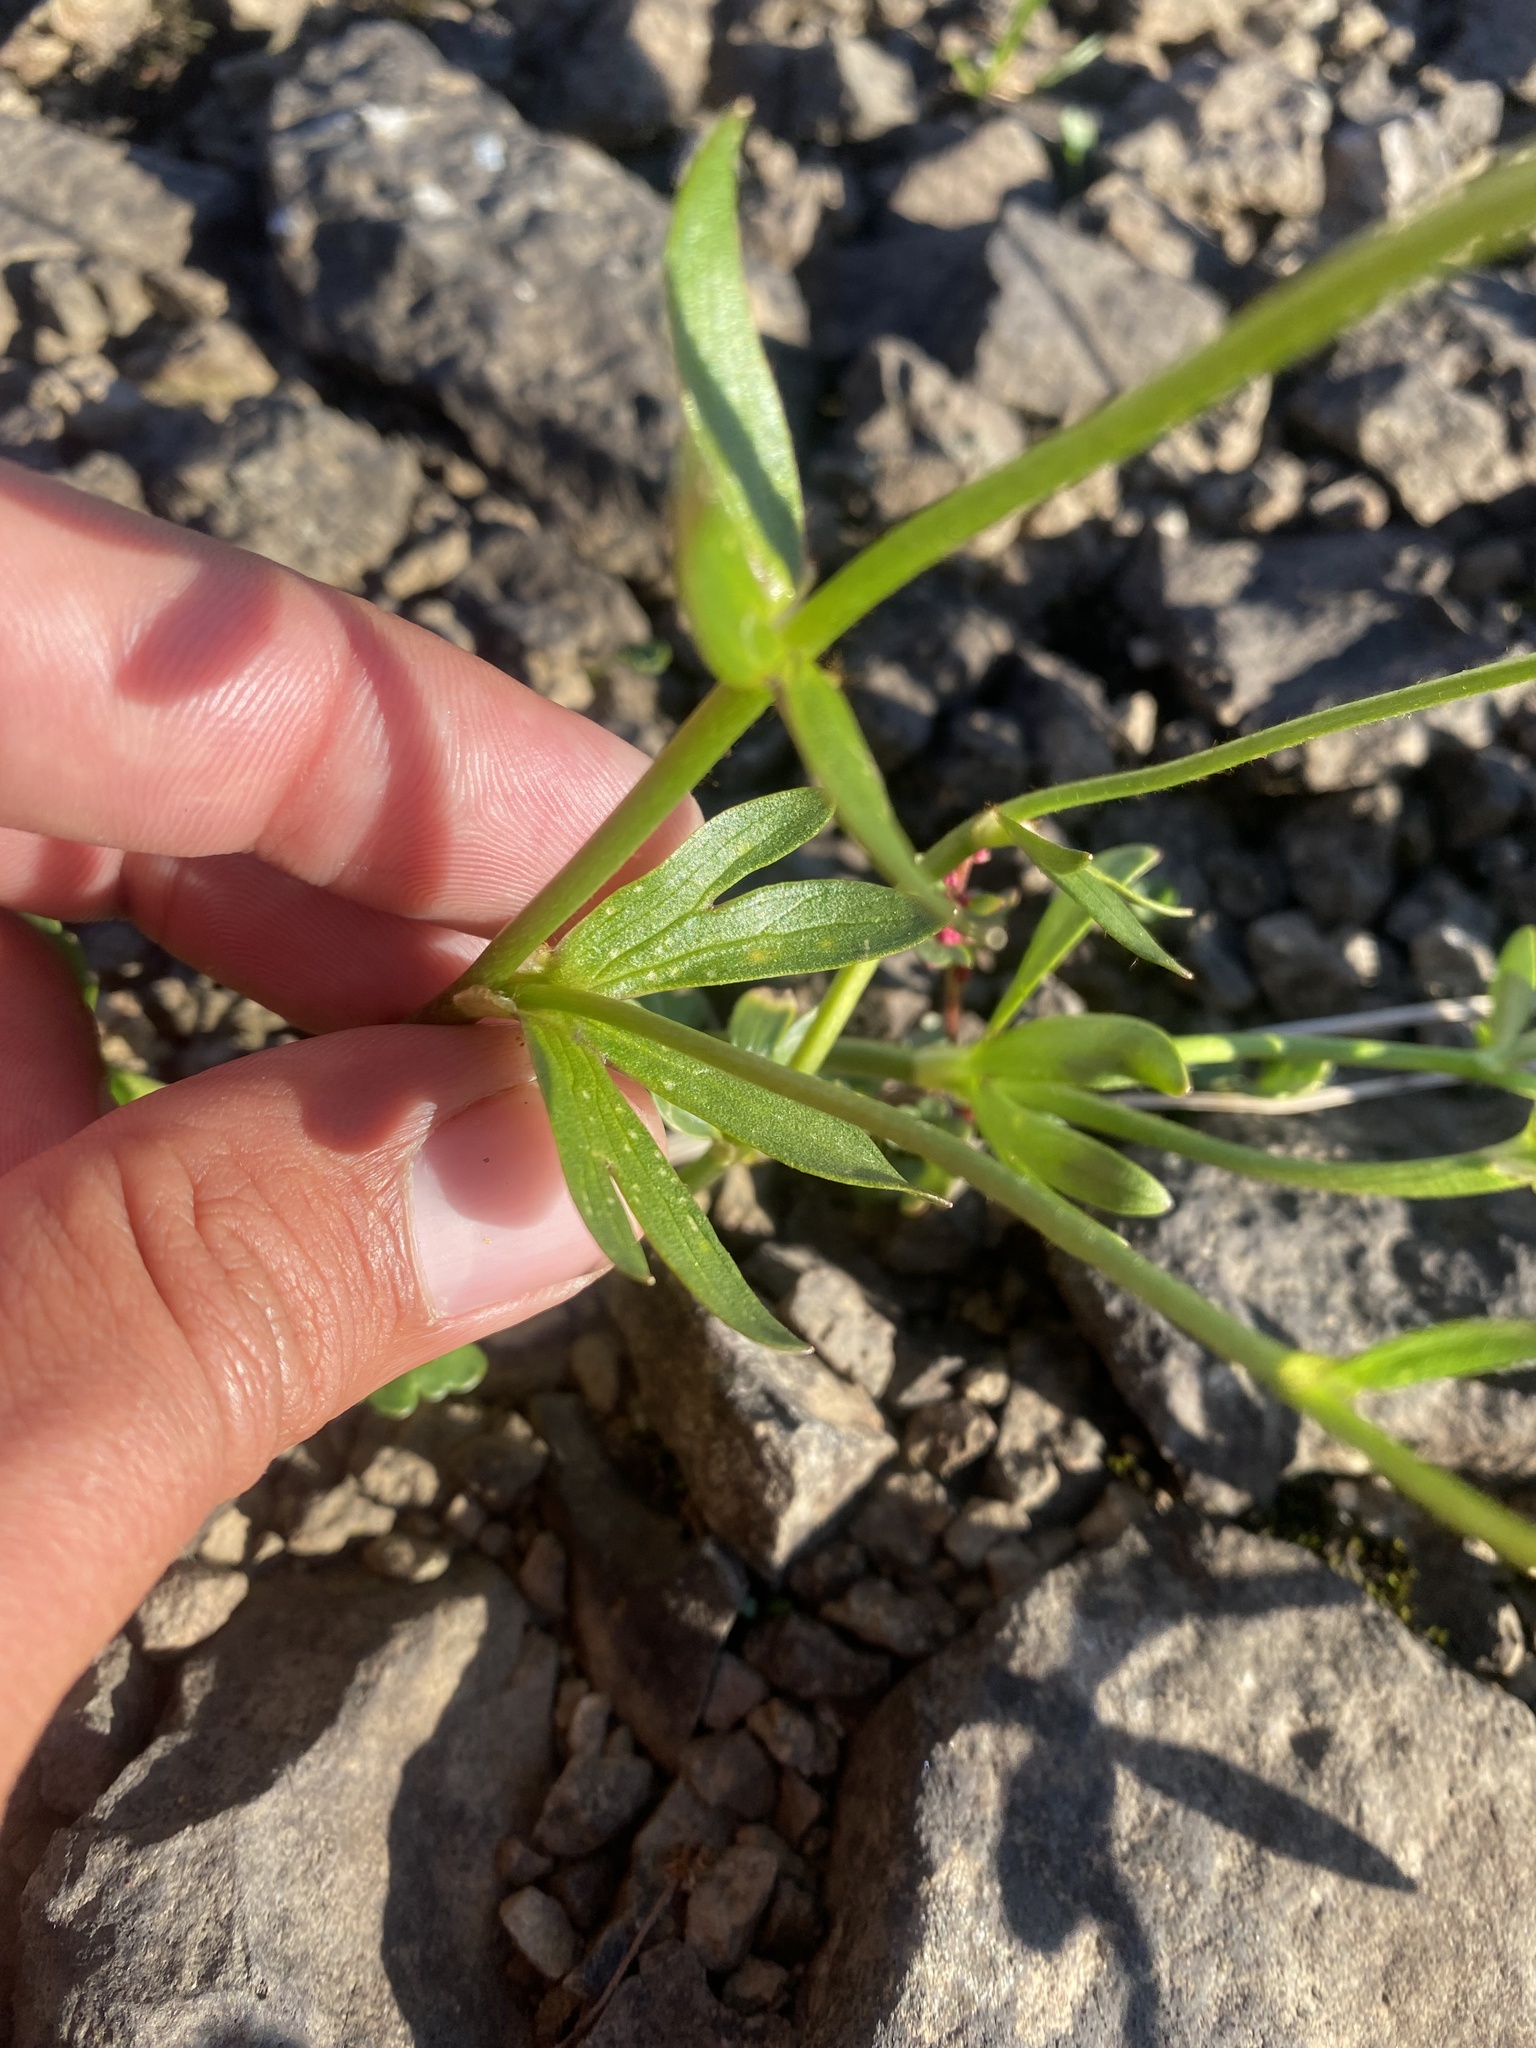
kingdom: Plantae
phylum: Tracheophyta
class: Magnoliopsida
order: Ranunculales
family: Ranunculaceae
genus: Ranunculus
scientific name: Ranunculus sulphureus
